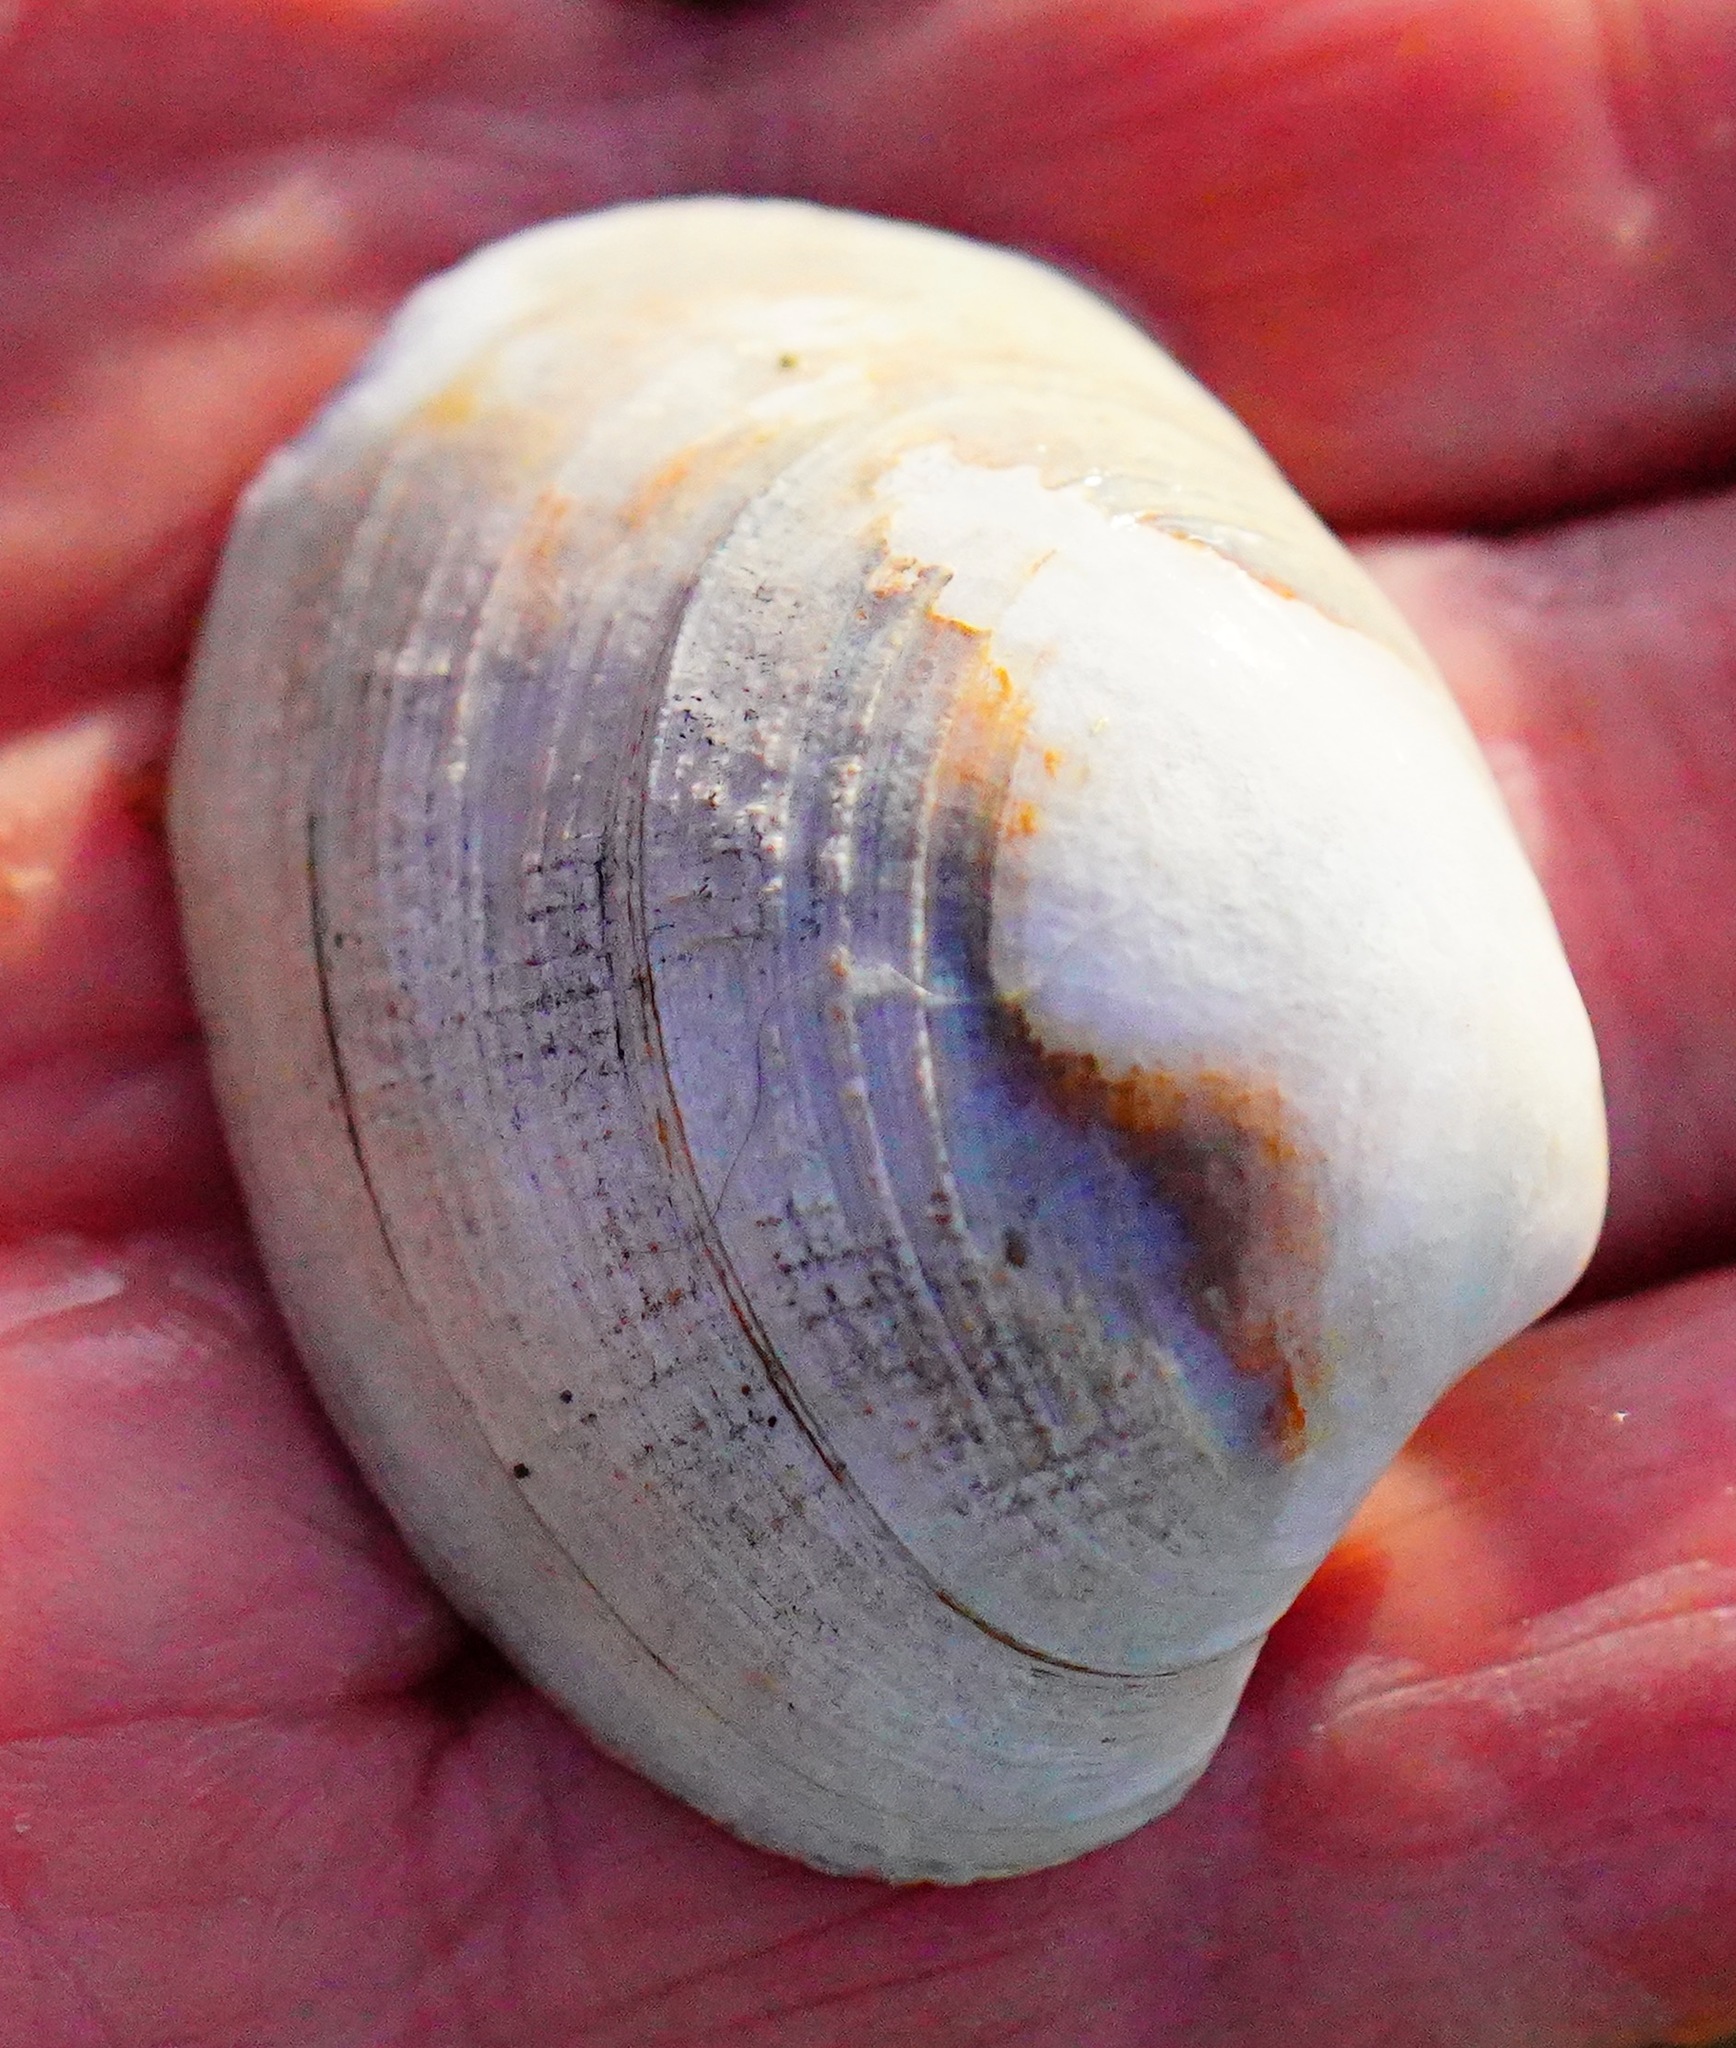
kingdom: Animalia
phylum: Mollusca
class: Bivalvia
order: Venerida
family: Veneridae
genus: Ruditapes
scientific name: Ruditapes philippinarum
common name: Manila clam
